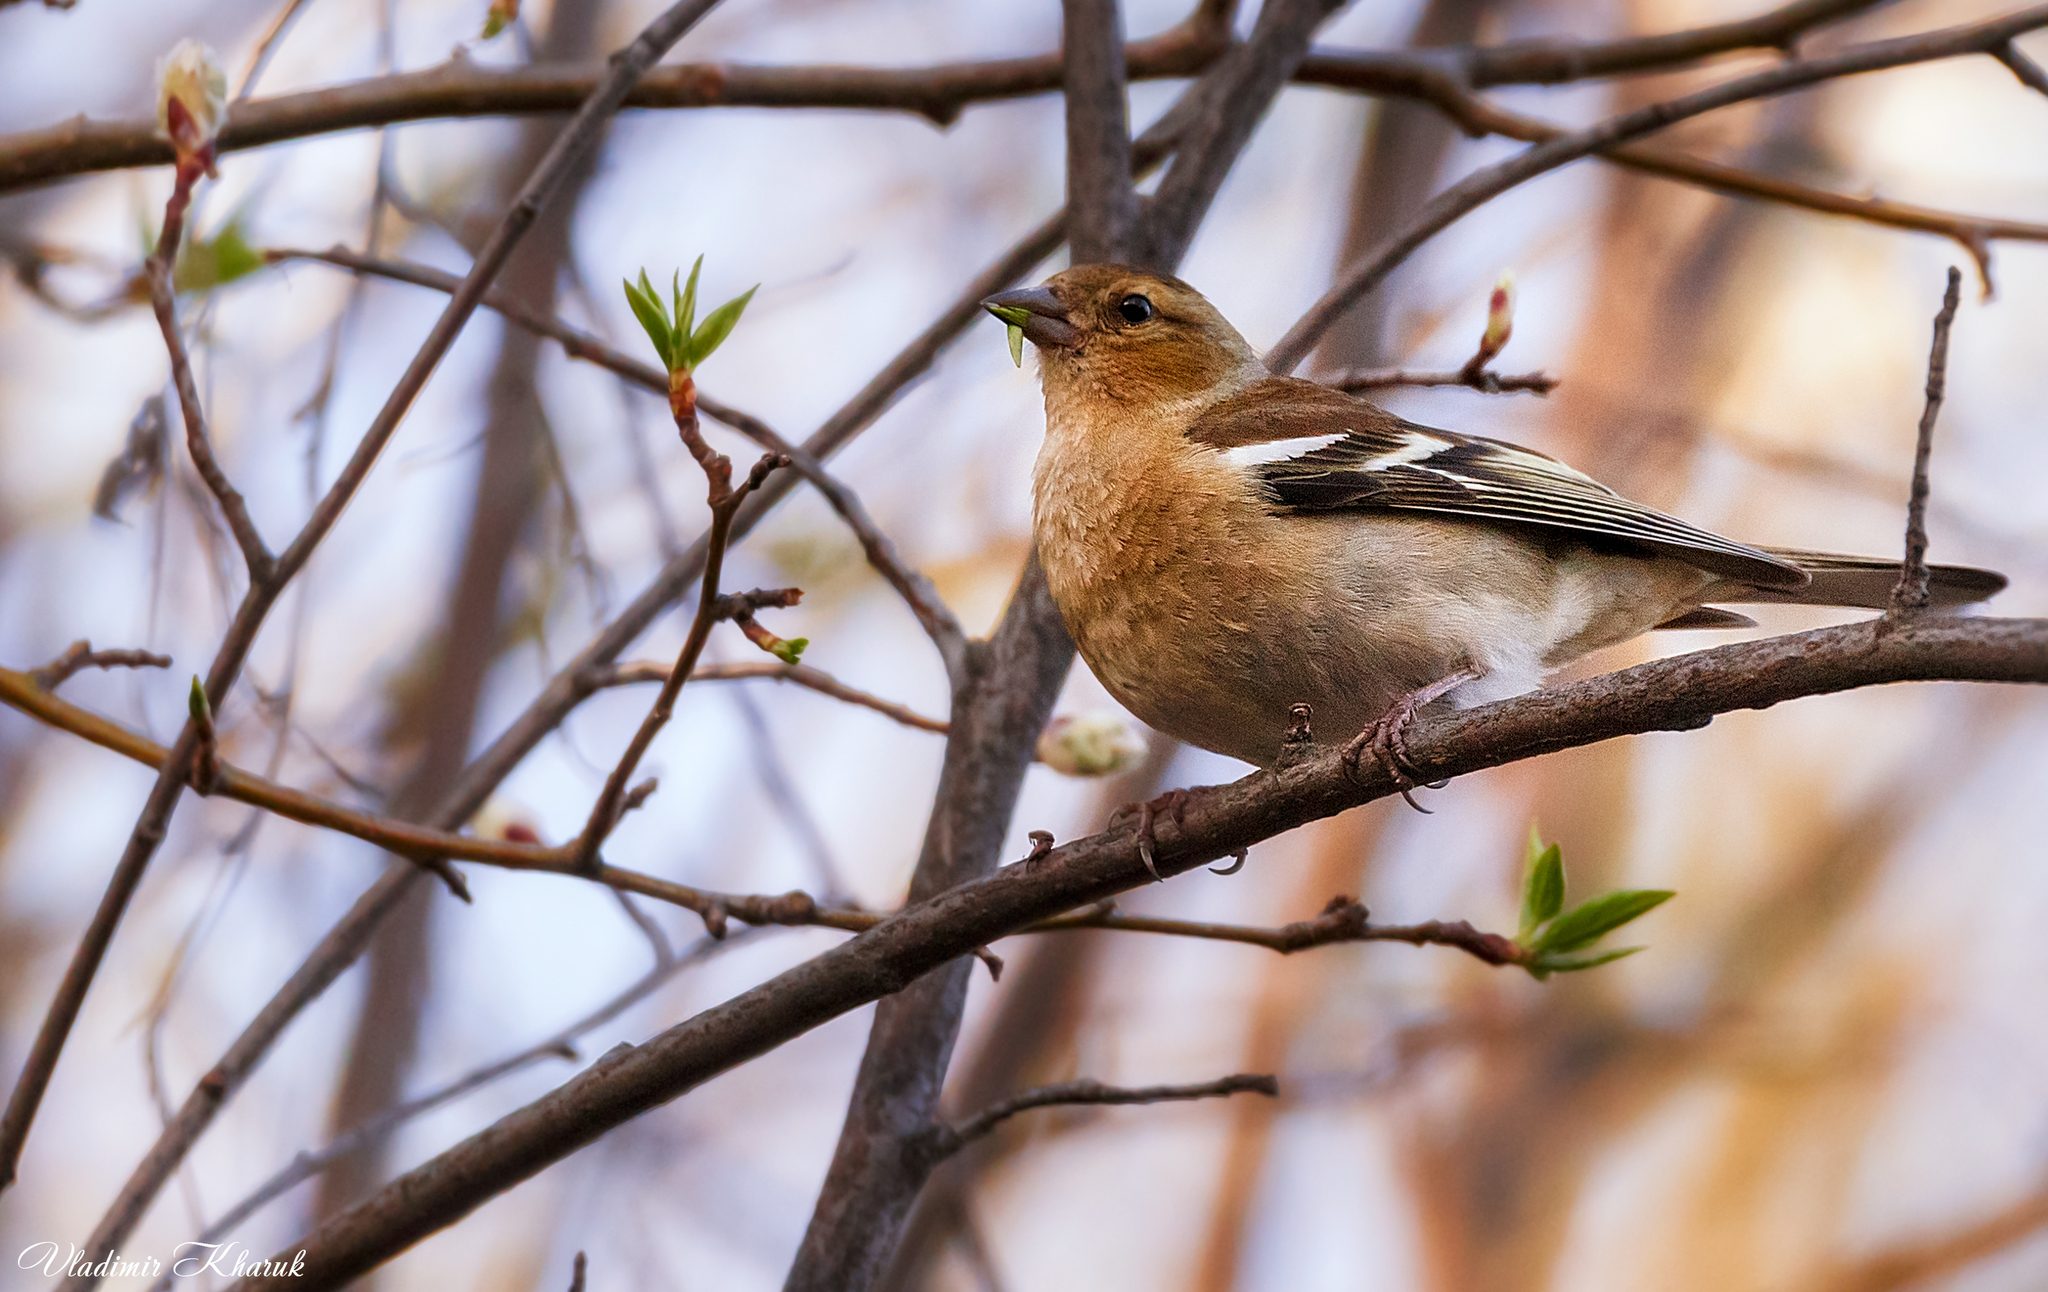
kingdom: Animalia
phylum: Chordata
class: Aves
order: Passeriformes
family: Fringillidae
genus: Fringilla
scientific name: Fringilla coelebs
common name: Common chaffinch
